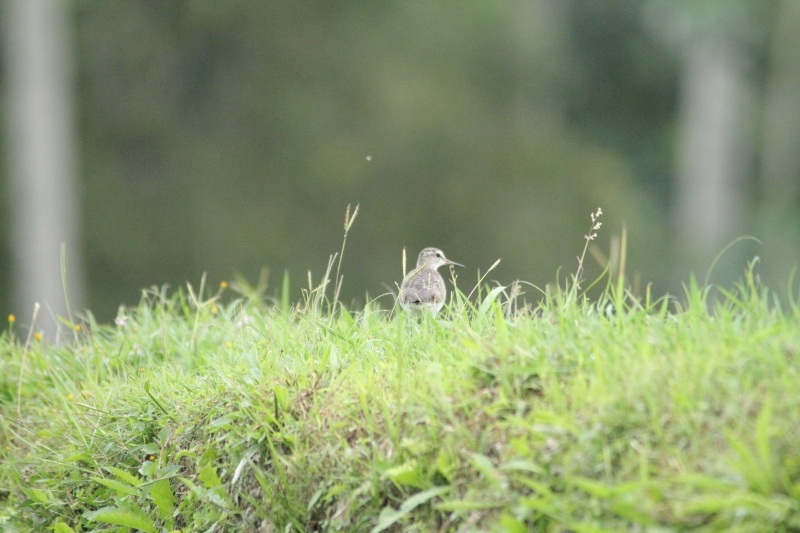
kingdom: Animalia
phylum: Chordata
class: Aves
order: Charadriiformes
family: Scolopacidae
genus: Tringa
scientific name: Tringa glareola
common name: Wood sandpiper
